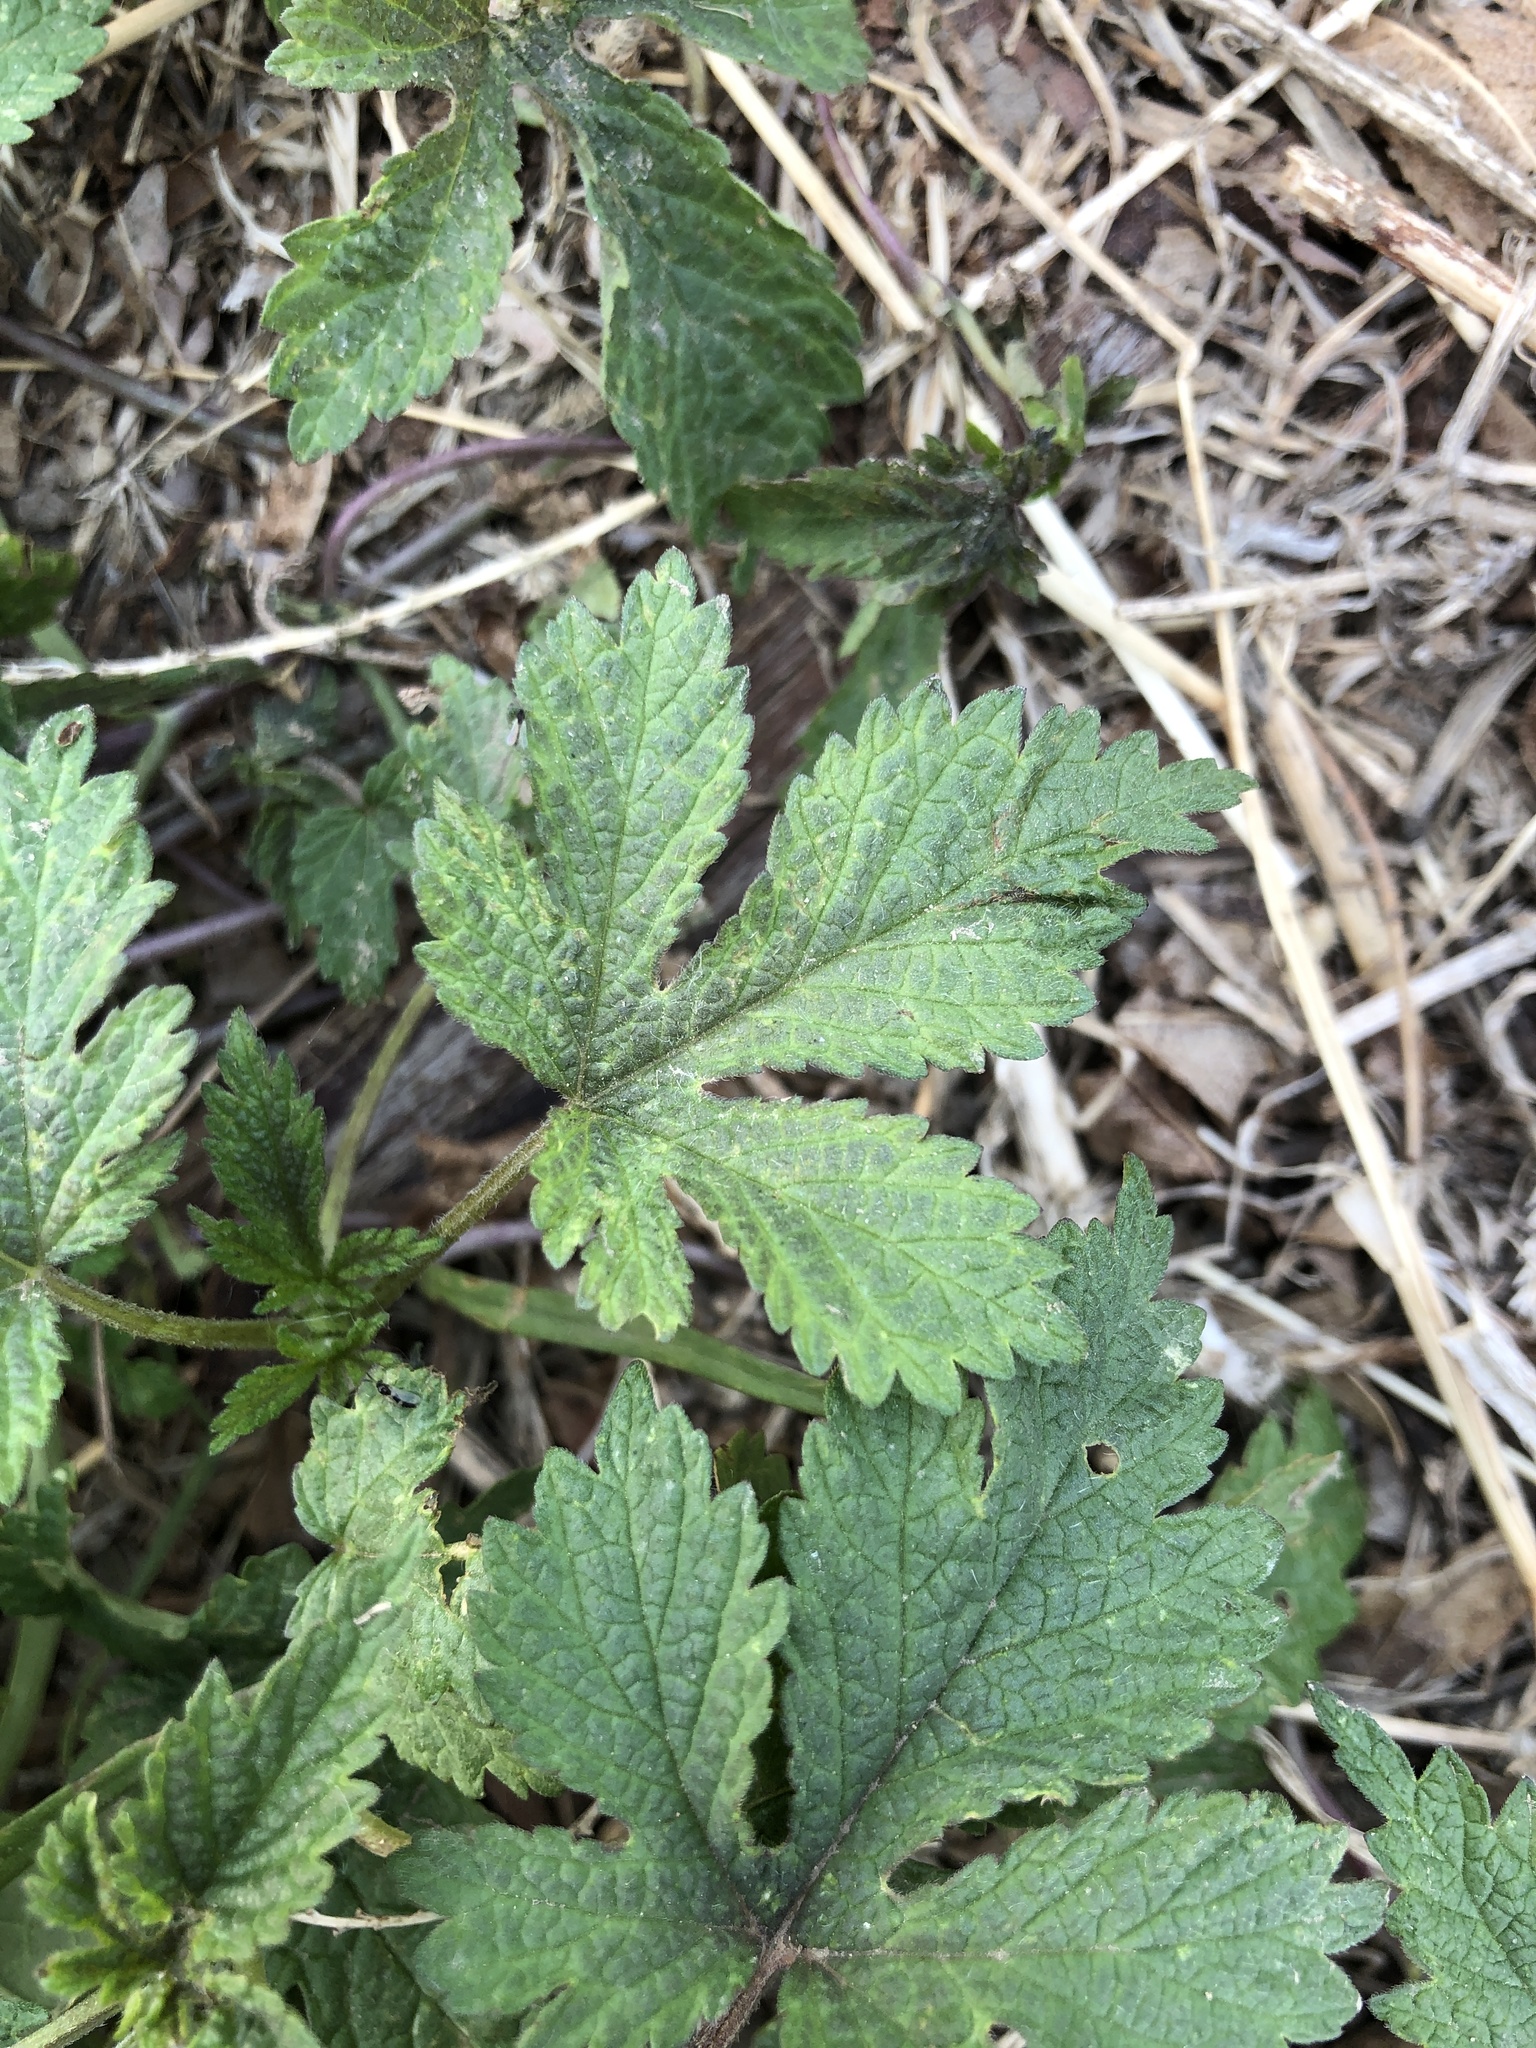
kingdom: Plantae
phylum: Tracheophyta
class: Magnoliopsida
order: Rosales
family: Cannabaceae
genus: Humulus
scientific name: Humulus scandens
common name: Japanese hop
